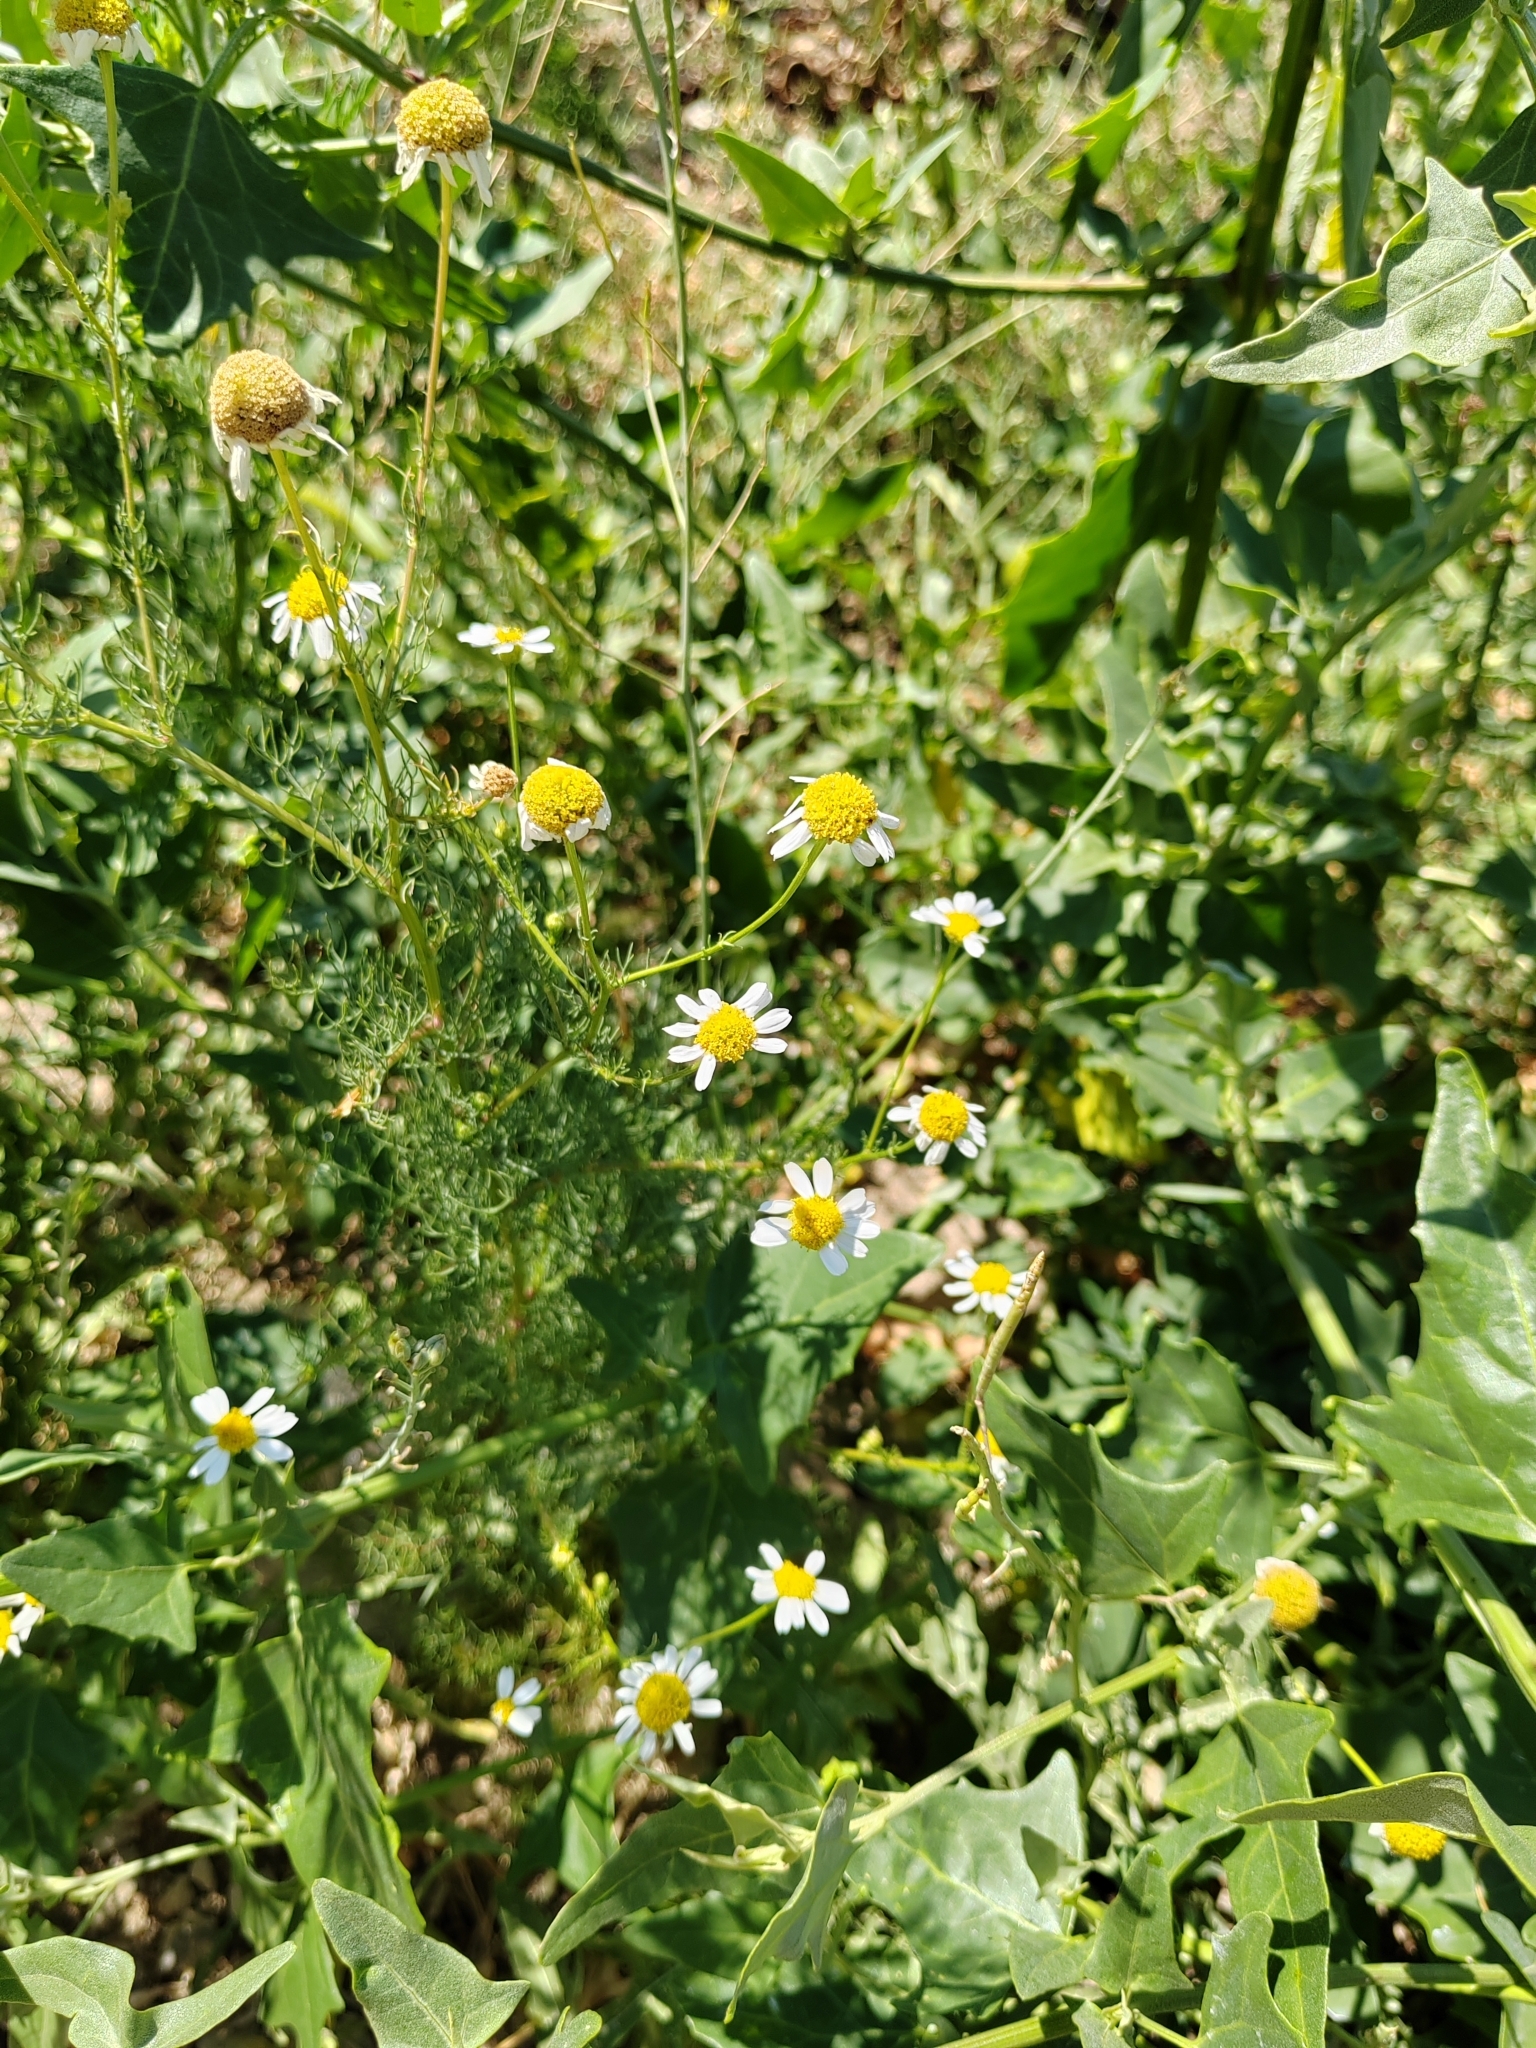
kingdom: Plantae
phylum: Tracheophyta
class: Magnoliopsida
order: Asterales
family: Asteraceae
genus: Tripleurospermum
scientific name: Tripleurospermum inodorum
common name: Scentless mayweed
